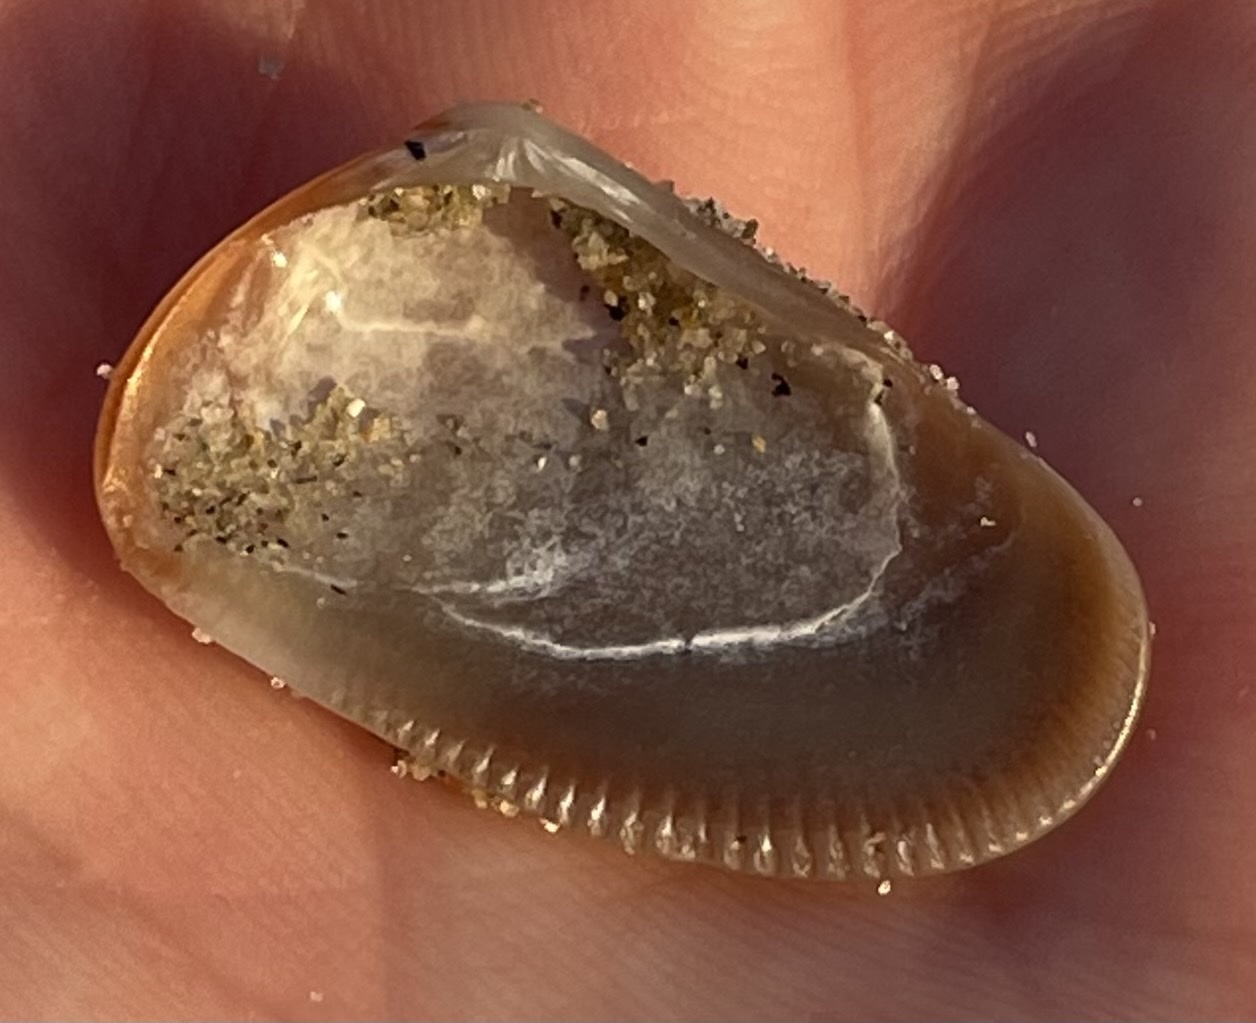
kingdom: Animalia
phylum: Mollusca
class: Bivalvia
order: Cardiida
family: Donacidae
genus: Donax
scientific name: Donax gouldii
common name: Gould beanclam
